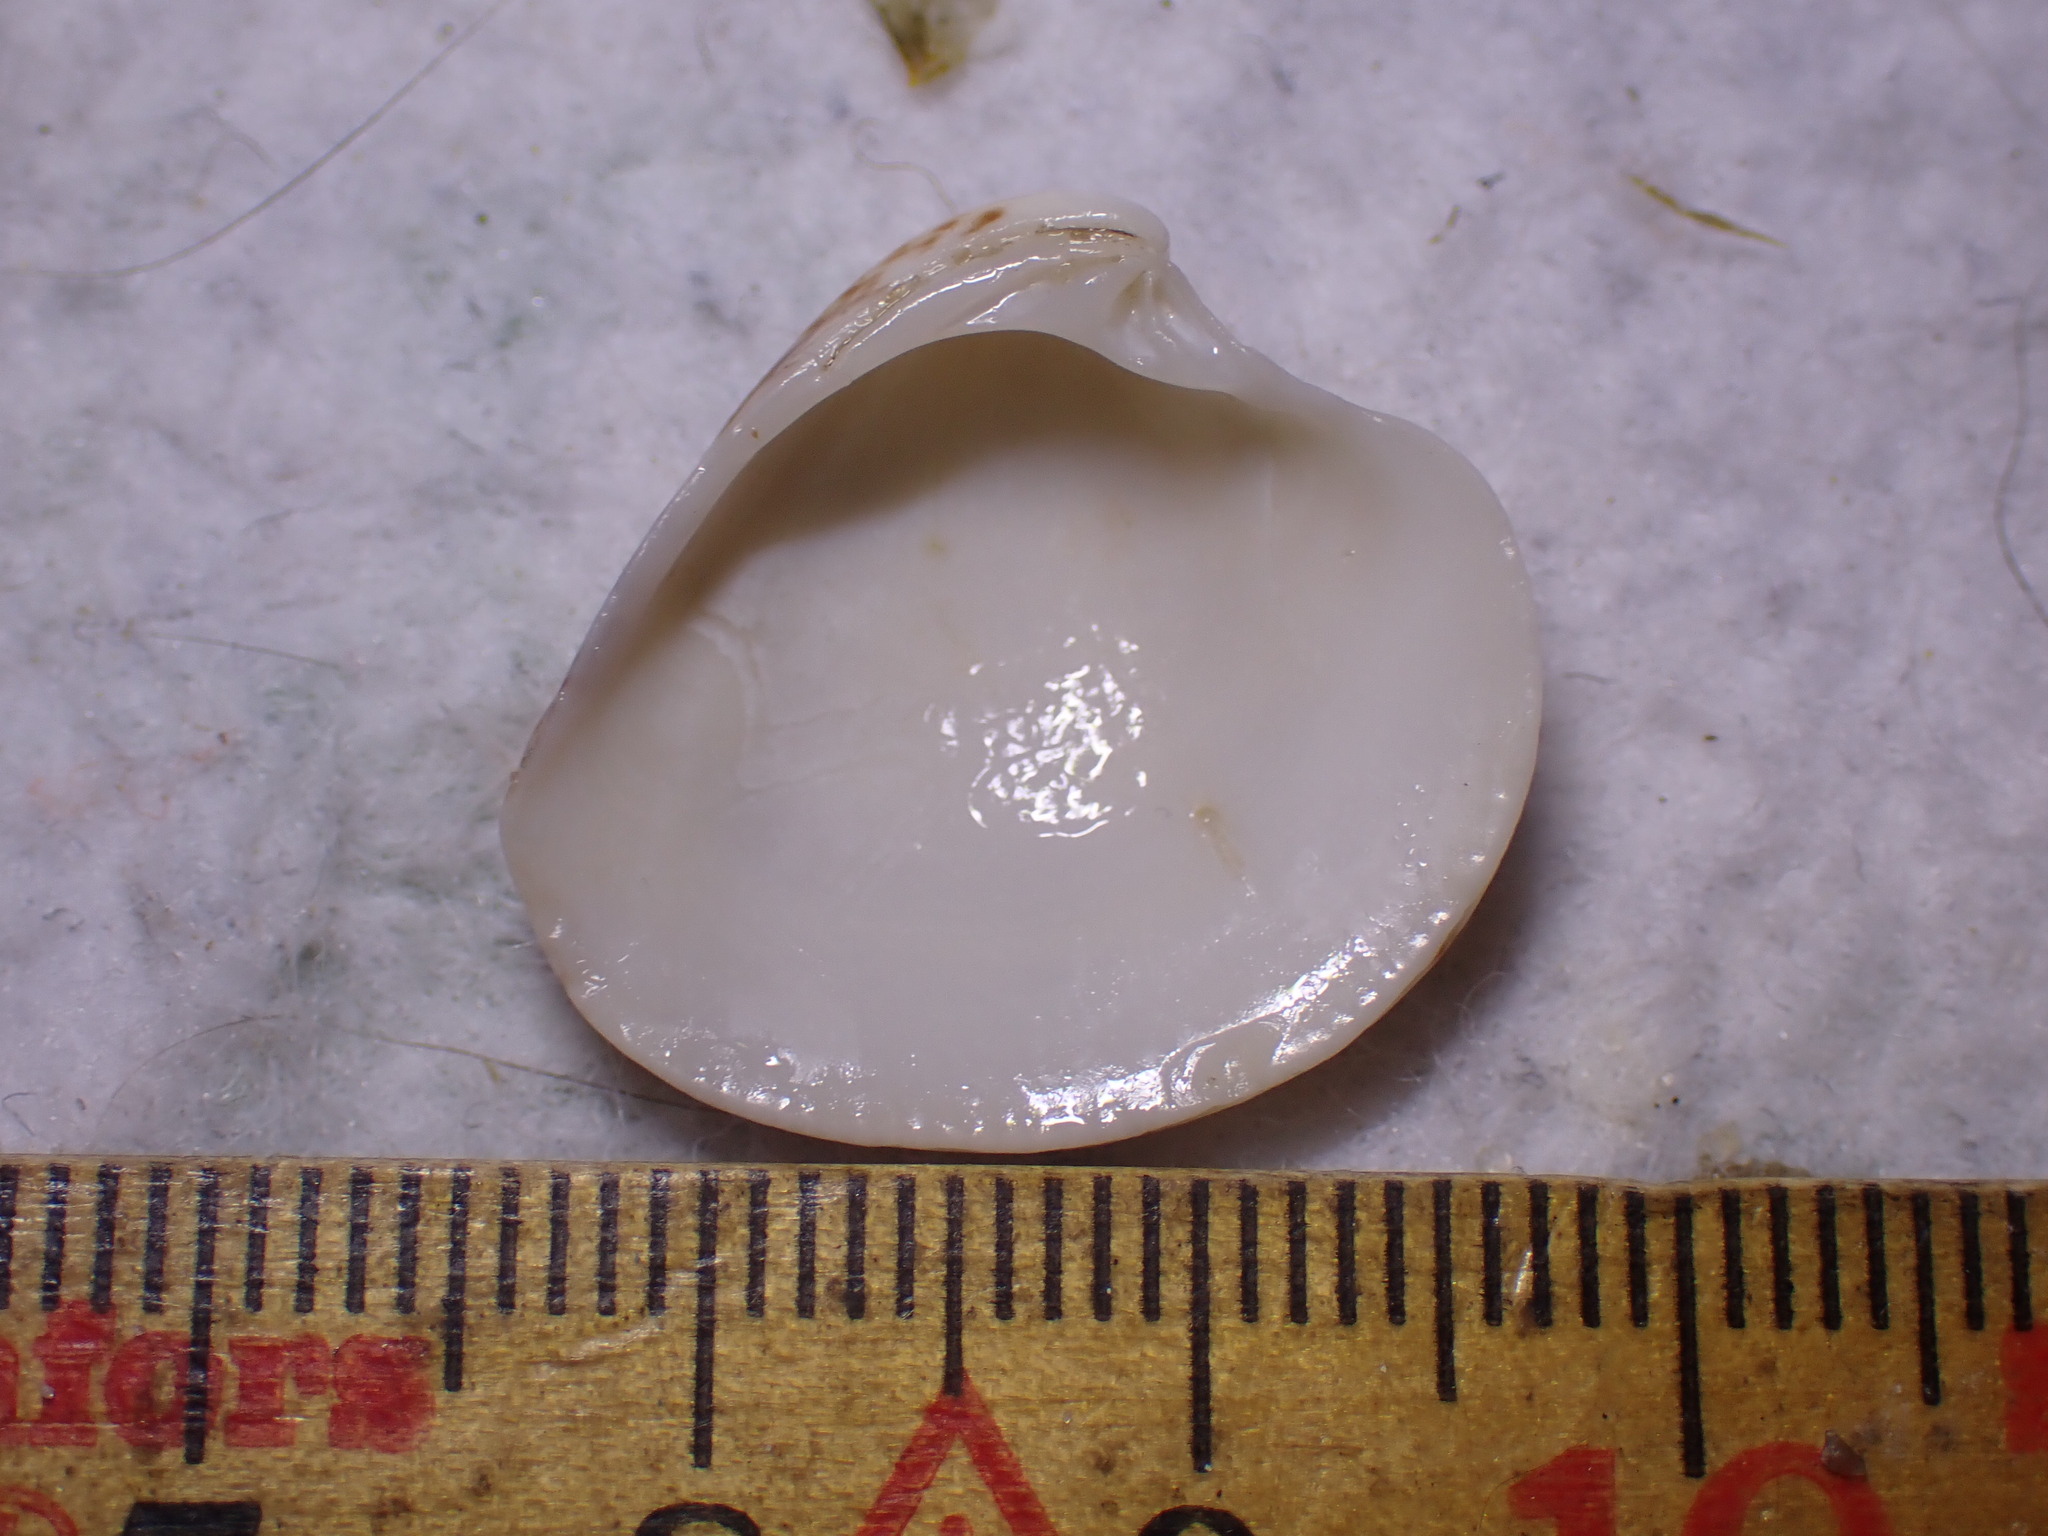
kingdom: Animalia
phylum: Mollusca
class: Bivalvia
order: Venerida
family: Veneridae
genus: Chamelea
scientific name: Chamelea striatula
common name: Striped venus
